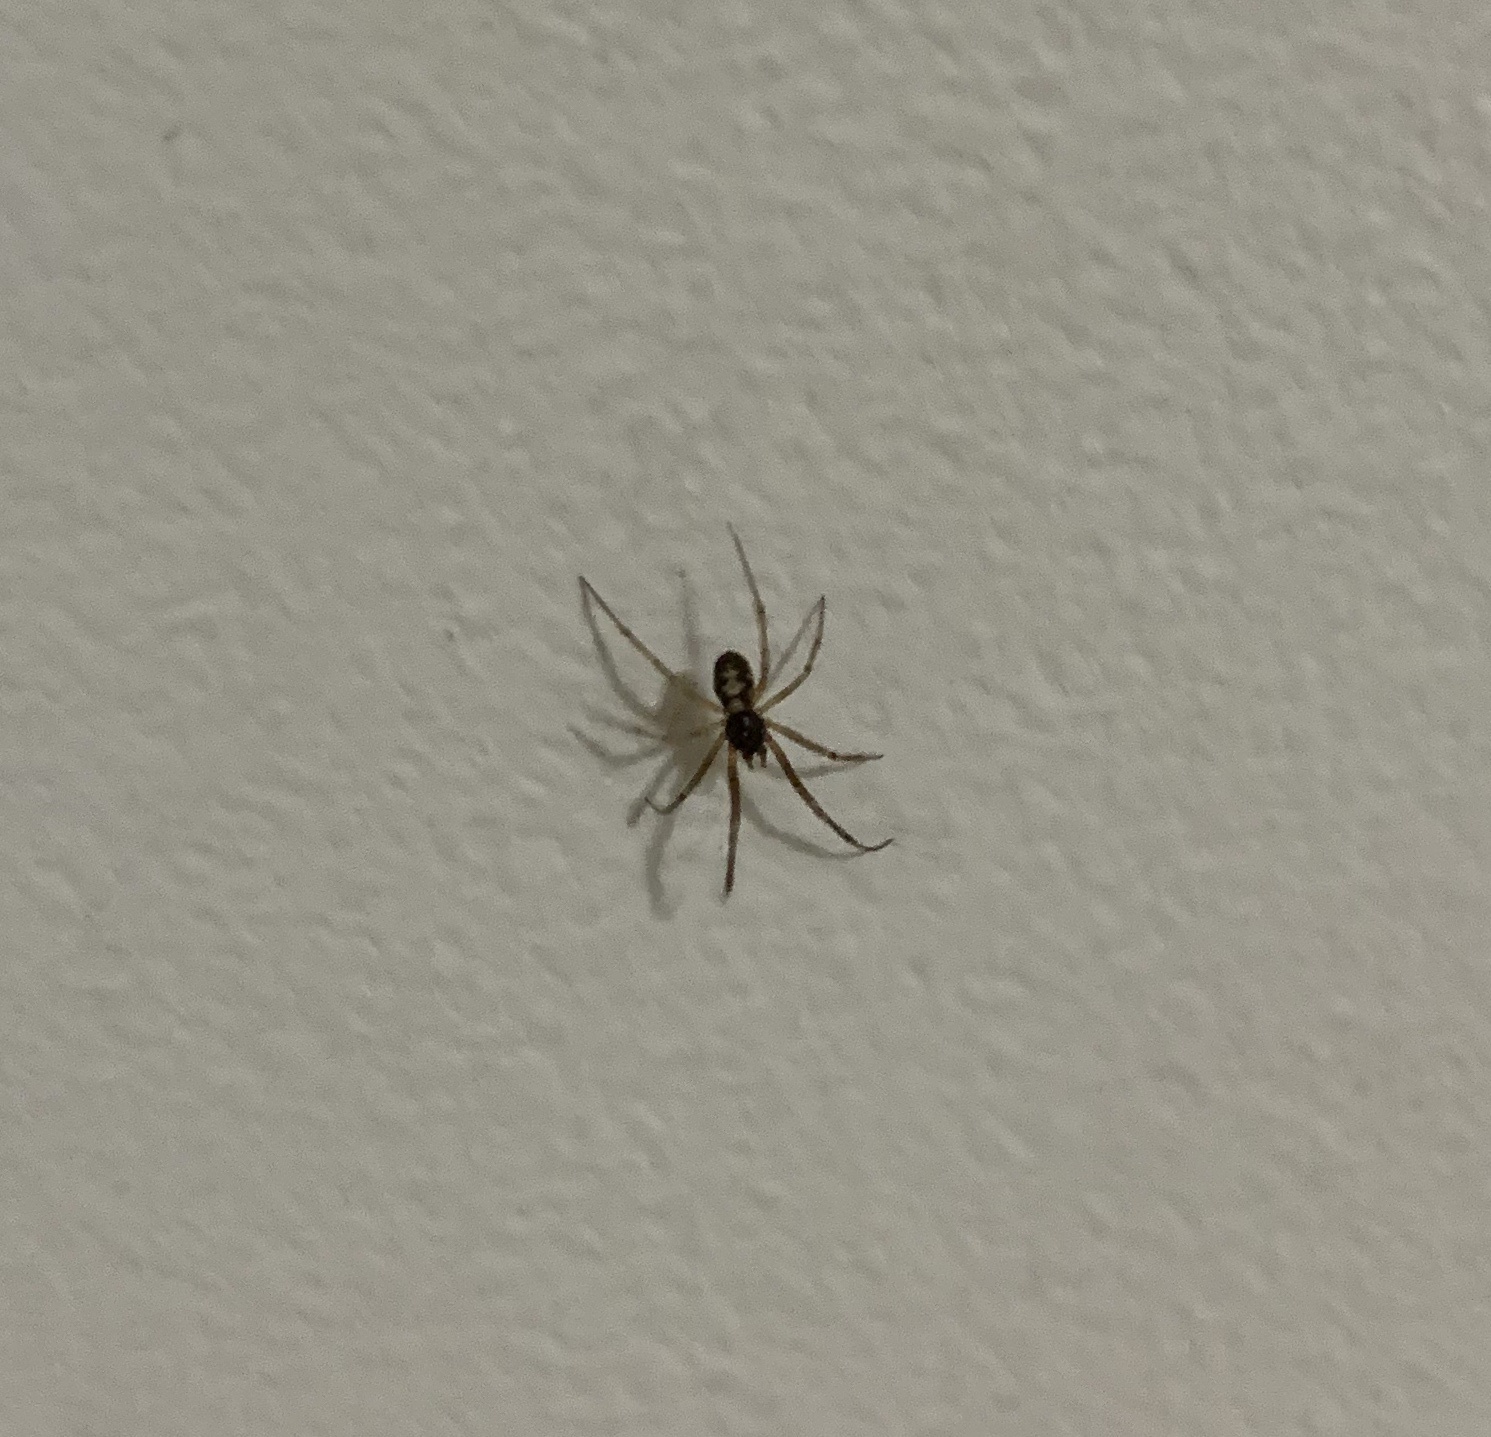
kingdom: Animalia
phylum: Arthropoda
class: Arachnida
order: Araneae
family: Theridiidae
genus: Steatoda
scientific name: Steatoda triangulosa
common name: Triangulate bud spider
